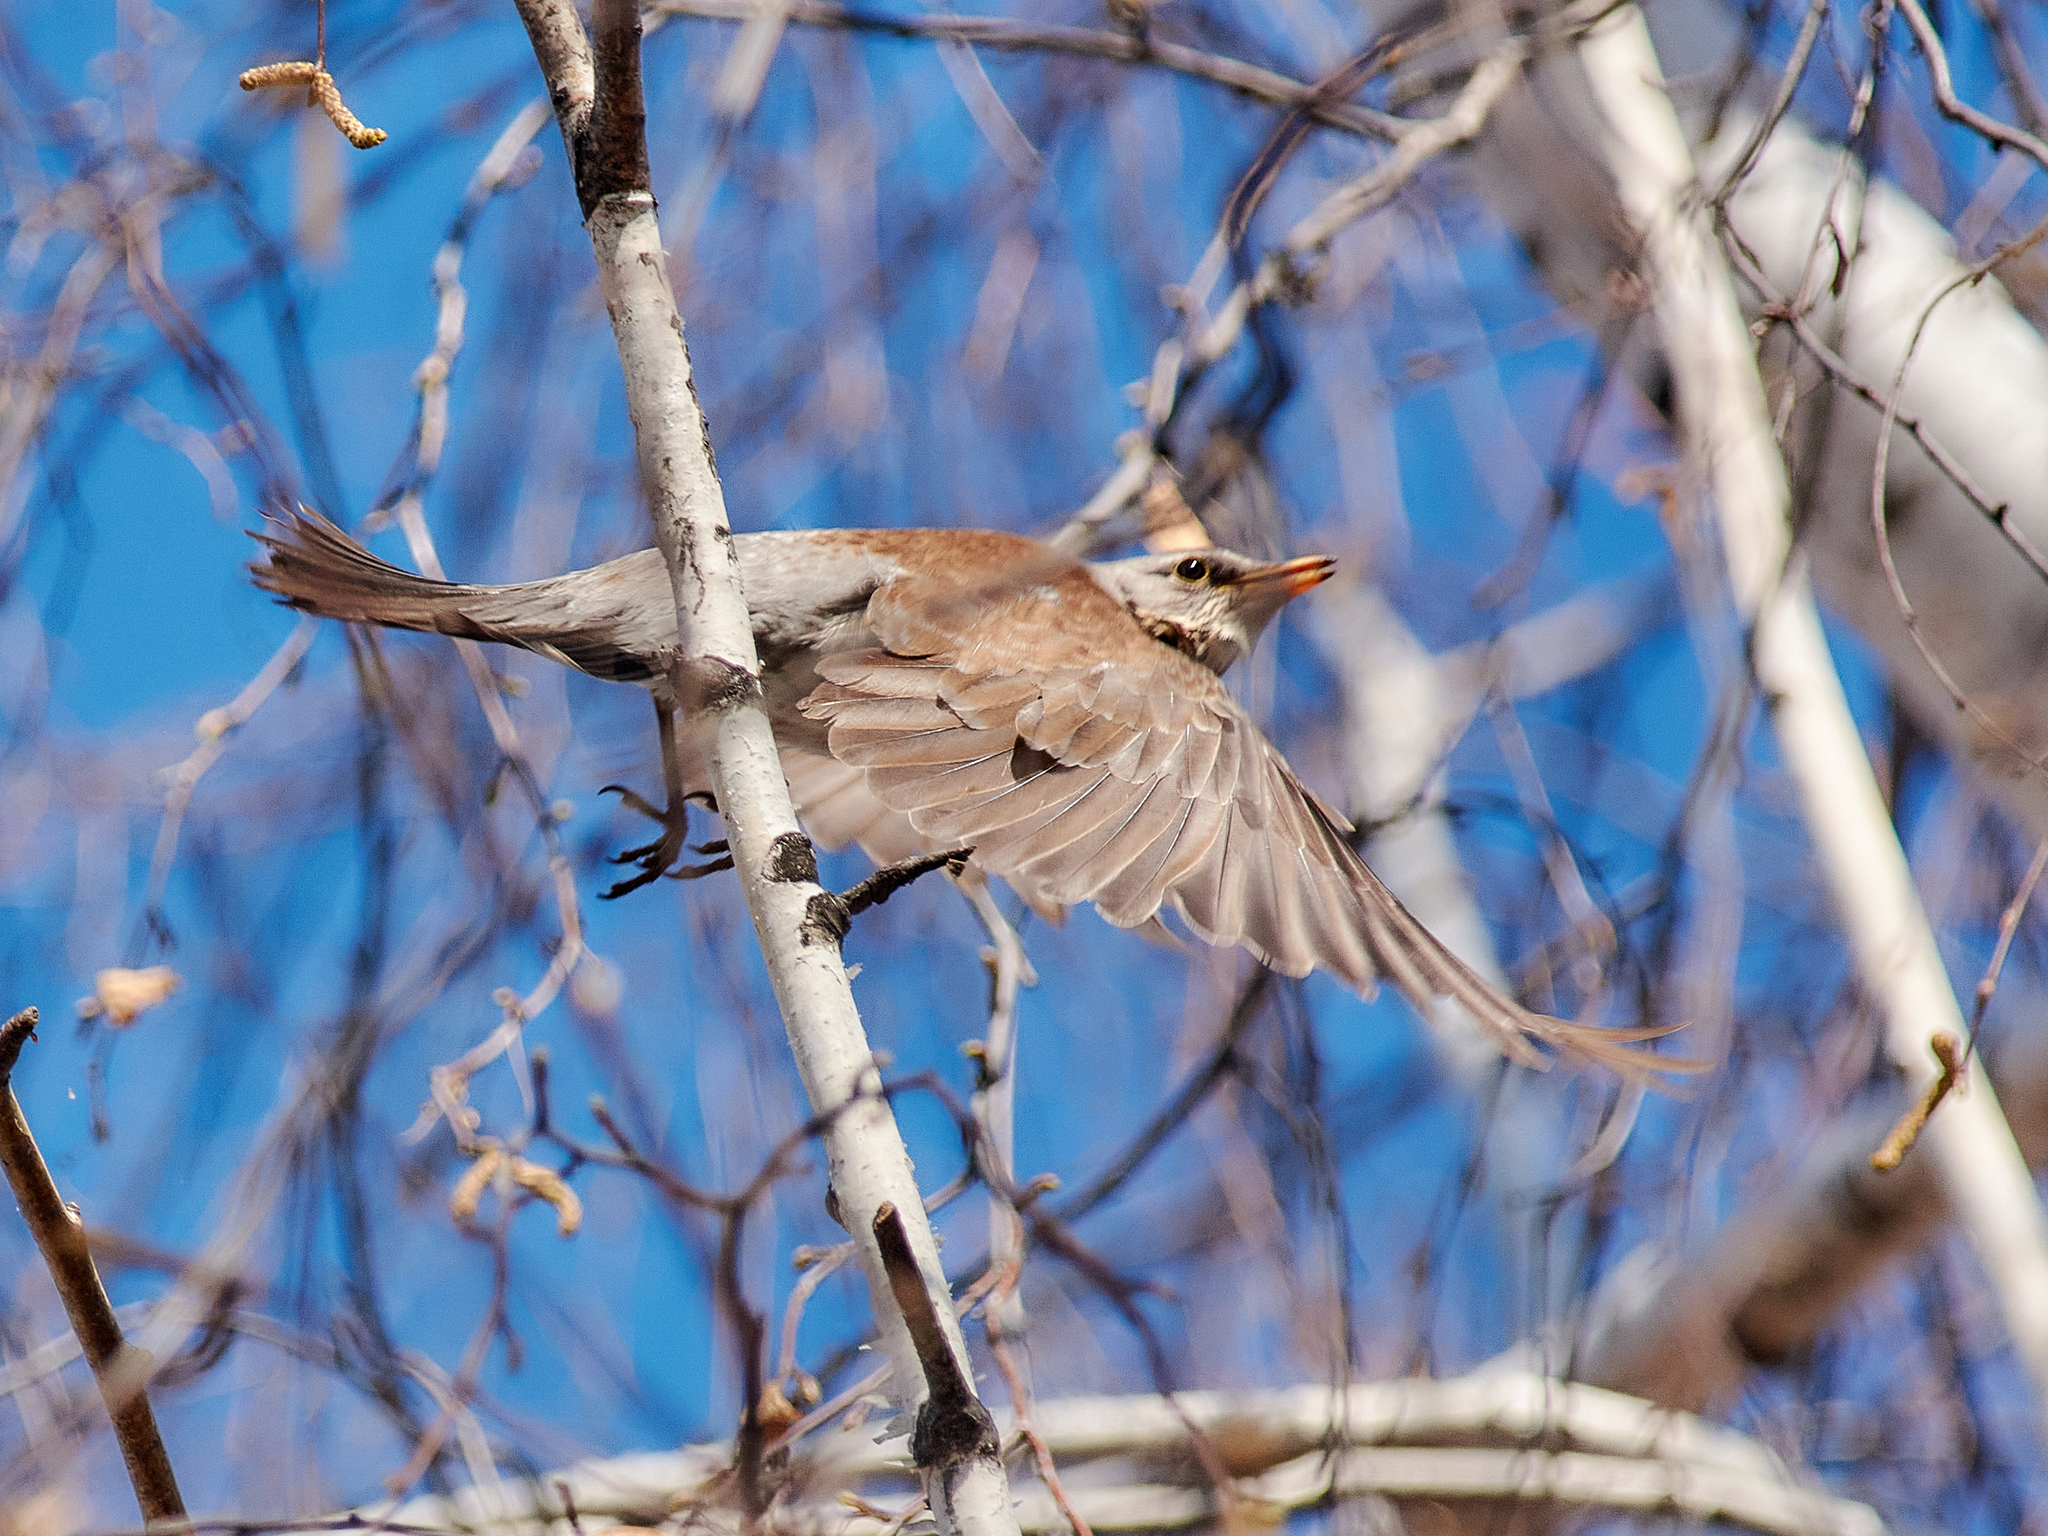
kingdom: Animalia
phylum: Chordata
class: Aves
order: Passeriformes
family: Turdidae
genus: Turdus
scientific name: Turdus pilaris
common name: Fieldfare
